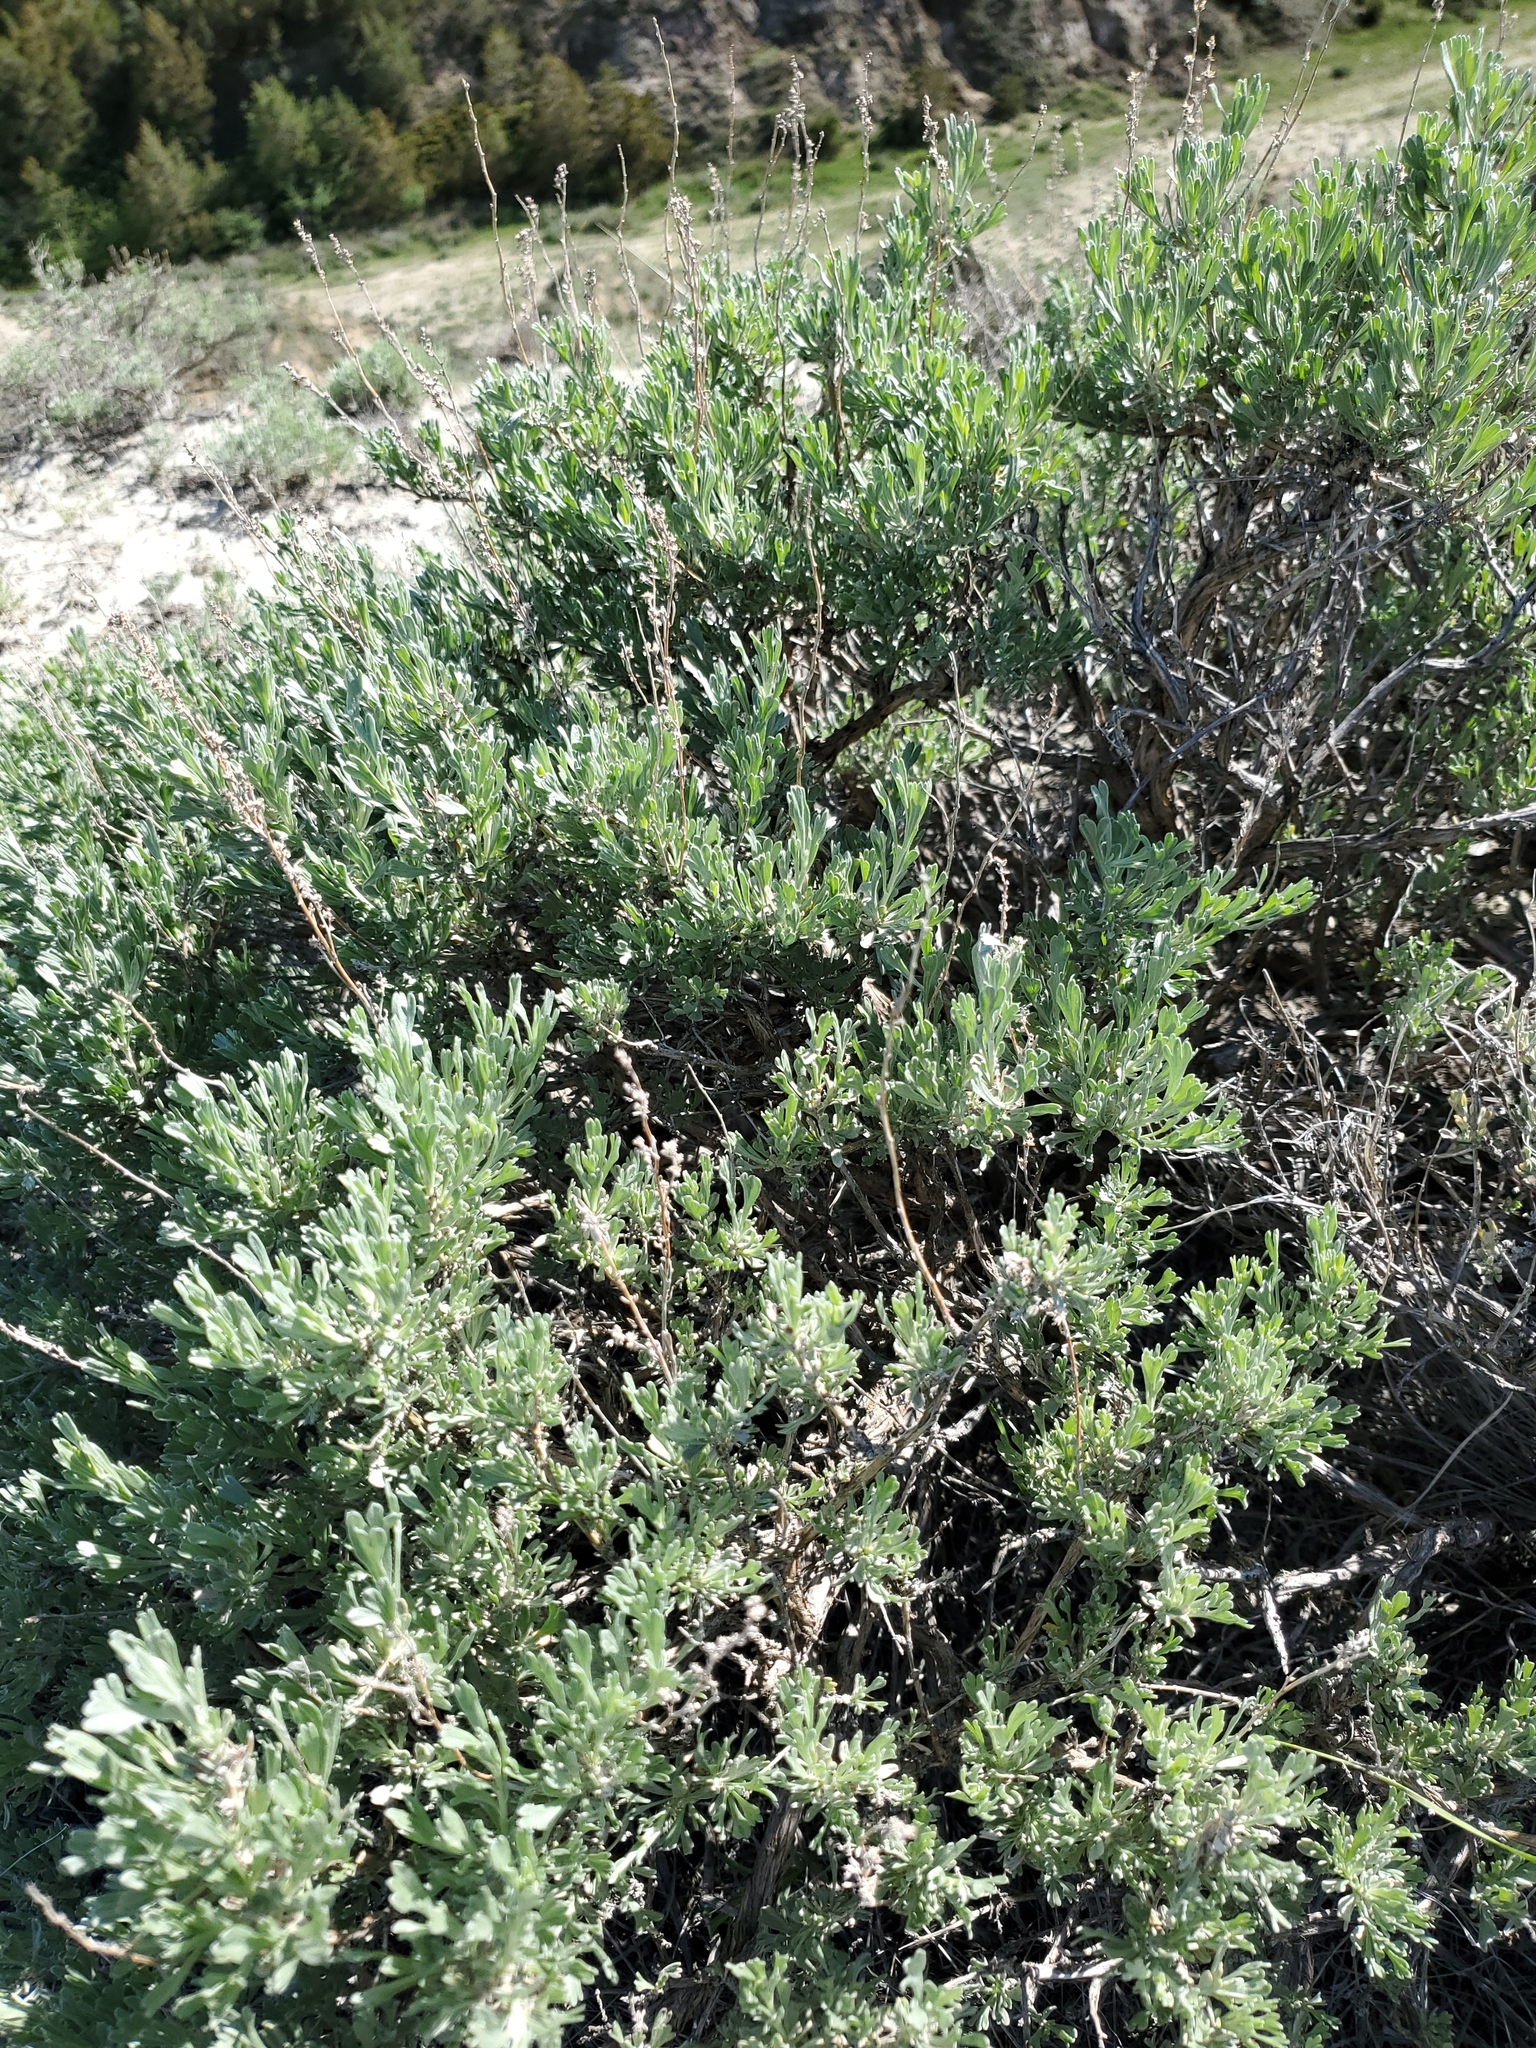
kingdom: Plantae
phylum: Tracheophyta
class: Magnoliopsida
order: Asterales
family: Asteraceae
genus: Artemisia
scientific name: Artemisia tridentata
